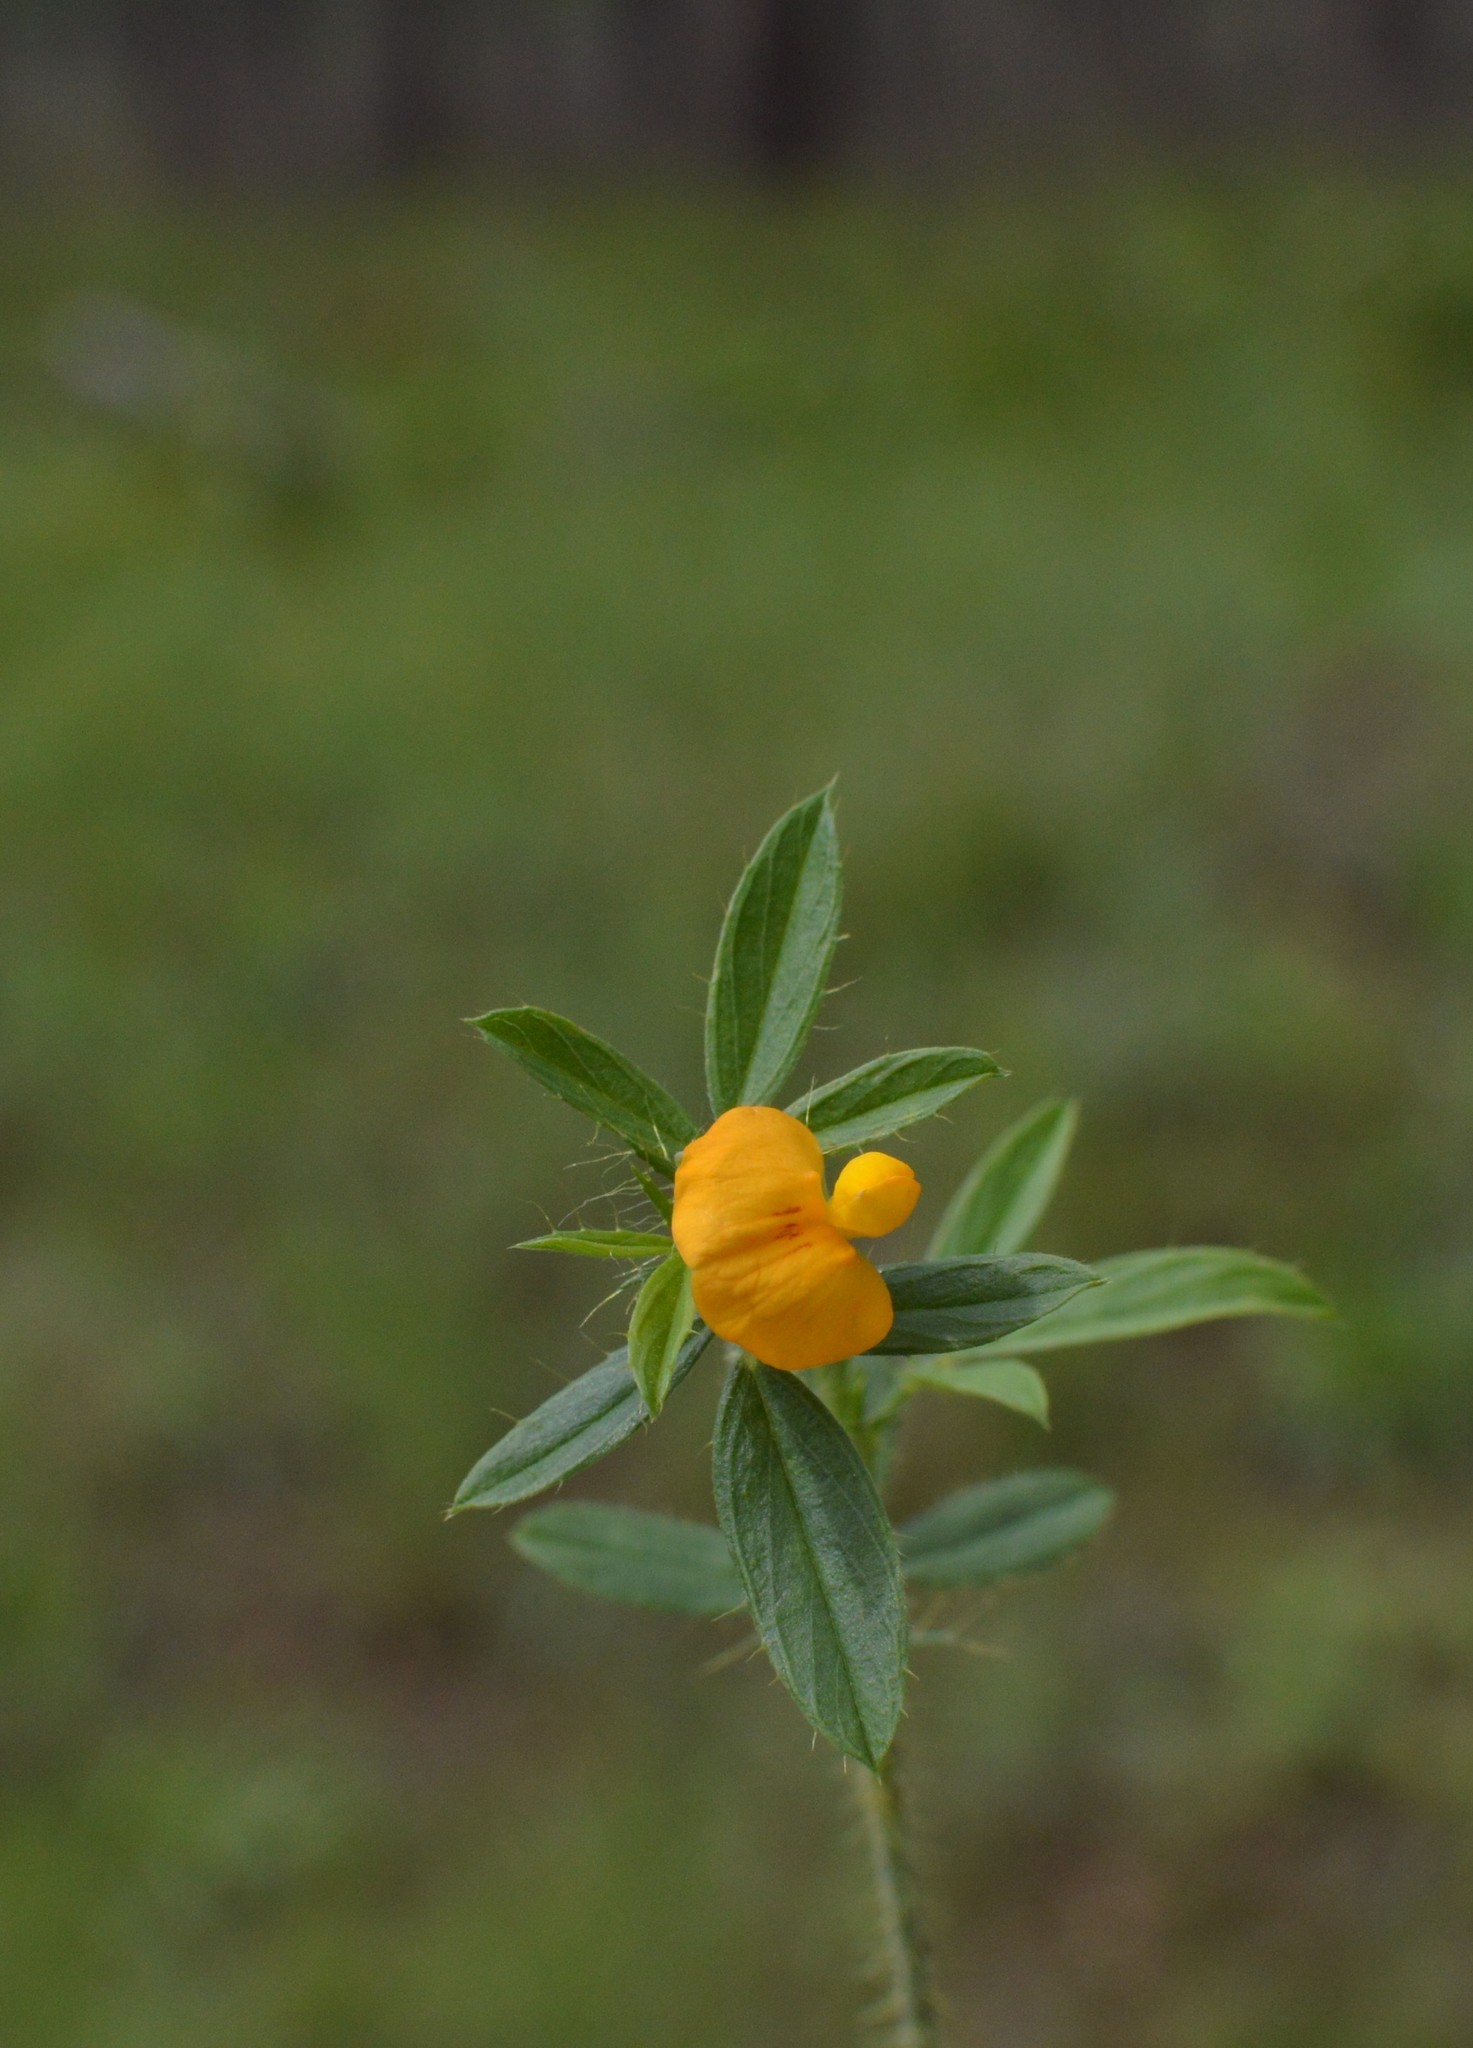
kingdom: Plantae
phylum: Tracheophyta
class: Magnoliopsida
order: Fabales
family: Fabaceae
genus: Stylosanthes
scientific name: Stylosanthes biflora
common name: Two-flower pencil-flower
